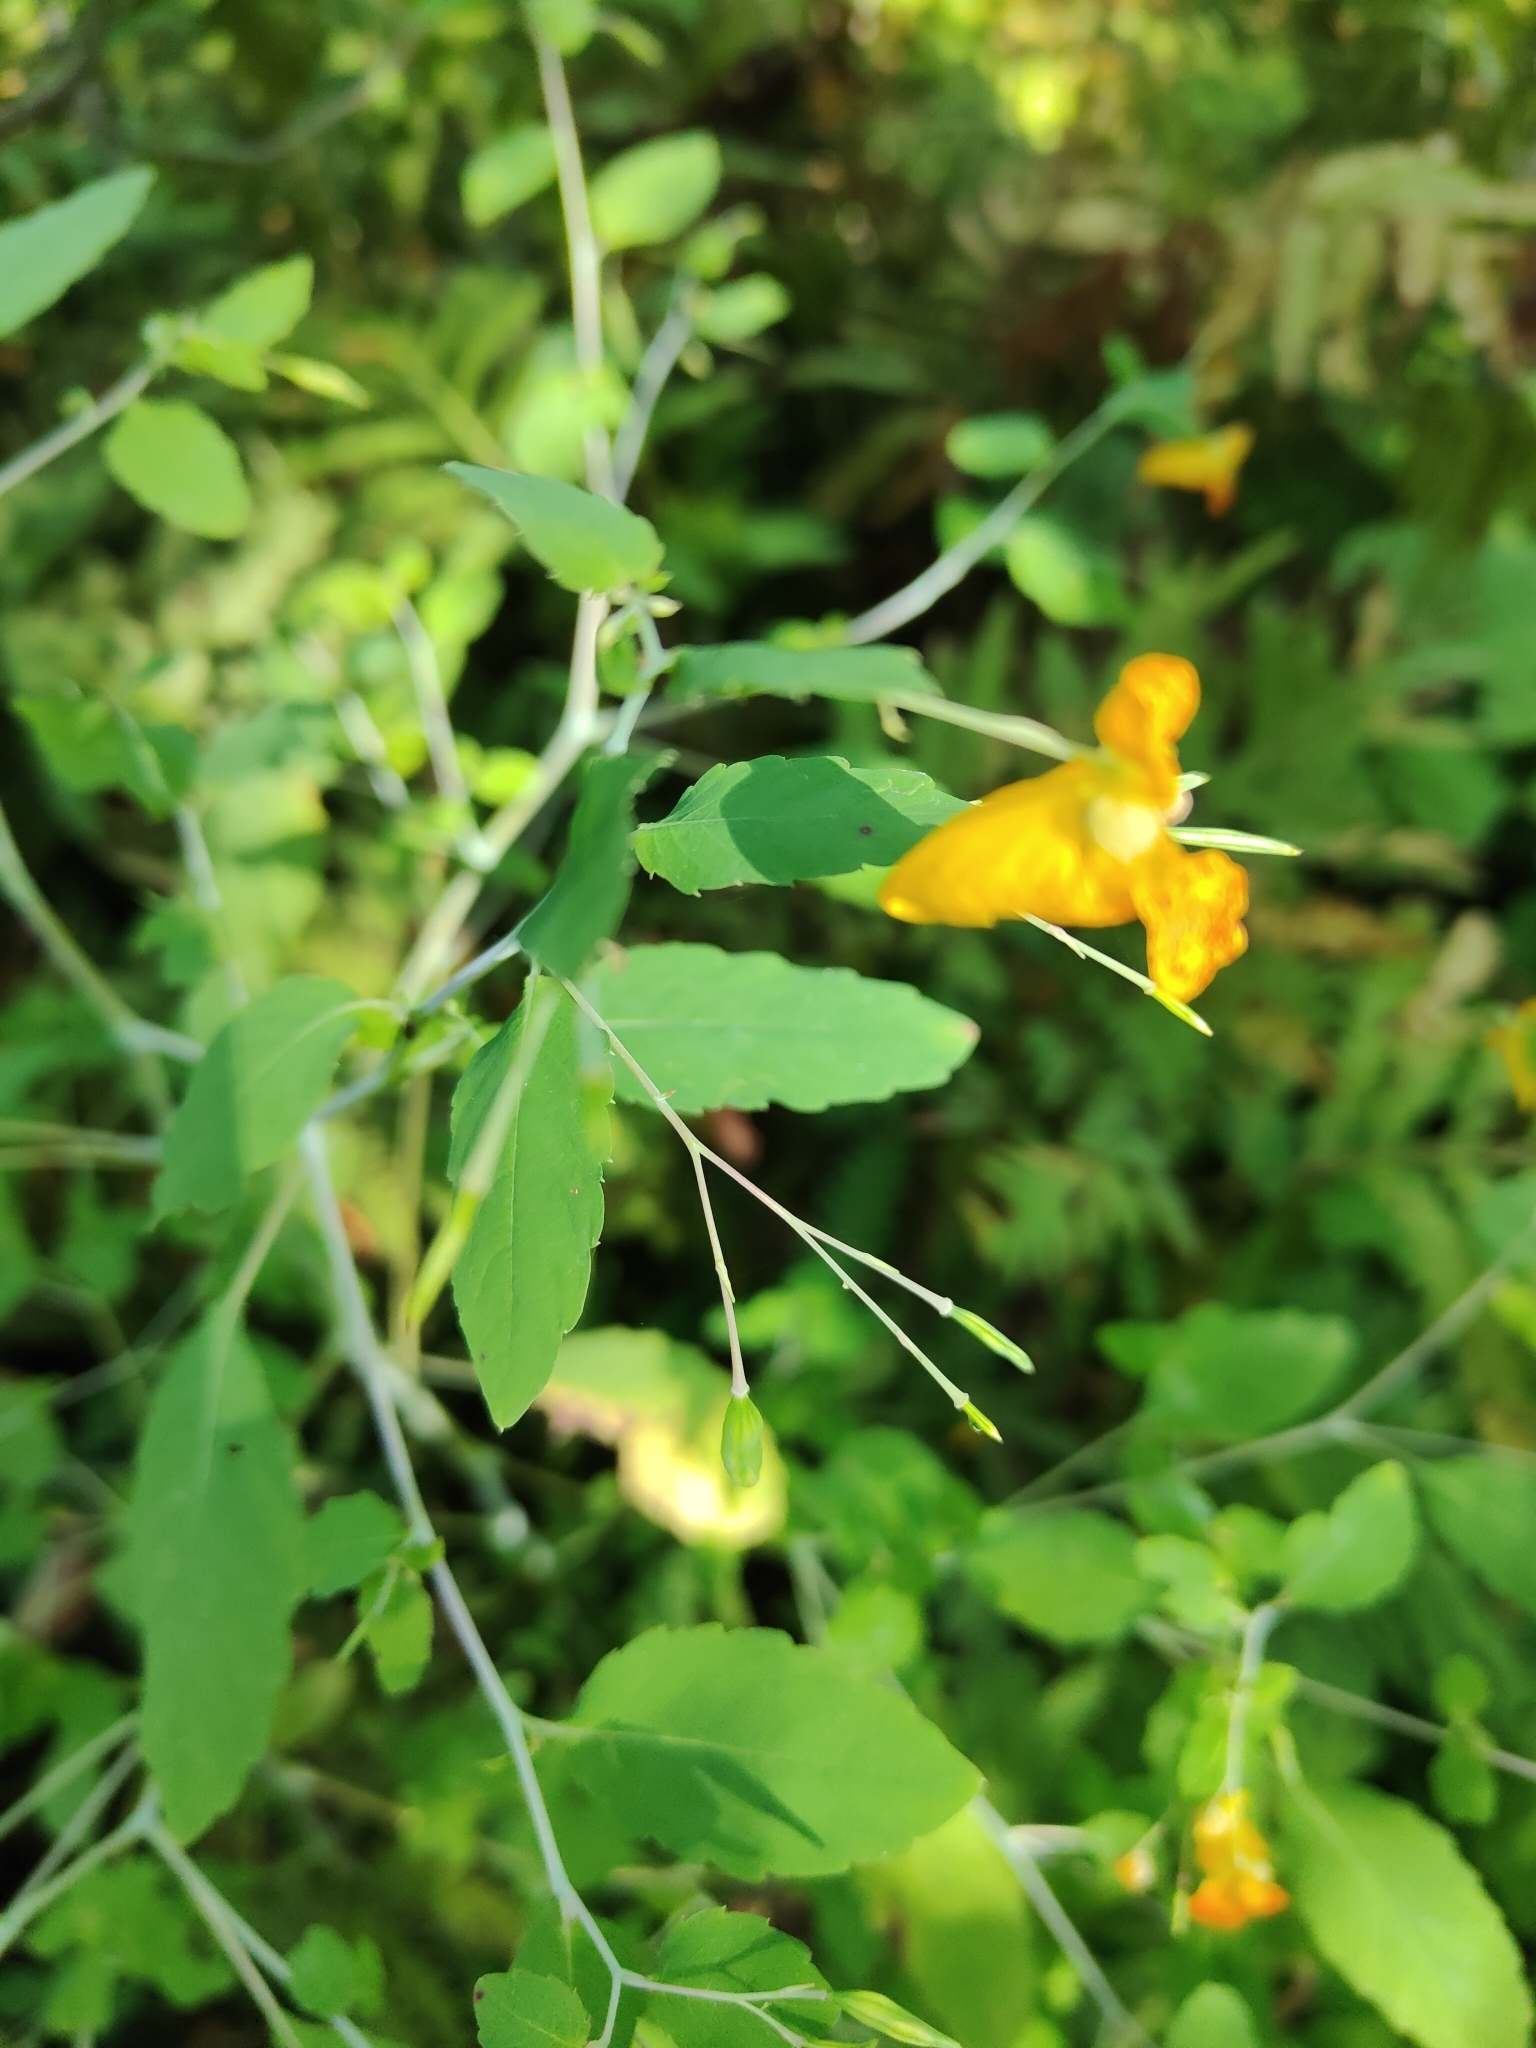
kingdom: Plantae
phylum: Tracheophyta
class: Magnoliopsida
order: Ericales
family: Balsaminaceae
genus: Impatiens
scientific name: Impatiens capensis
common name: Orange balsam
